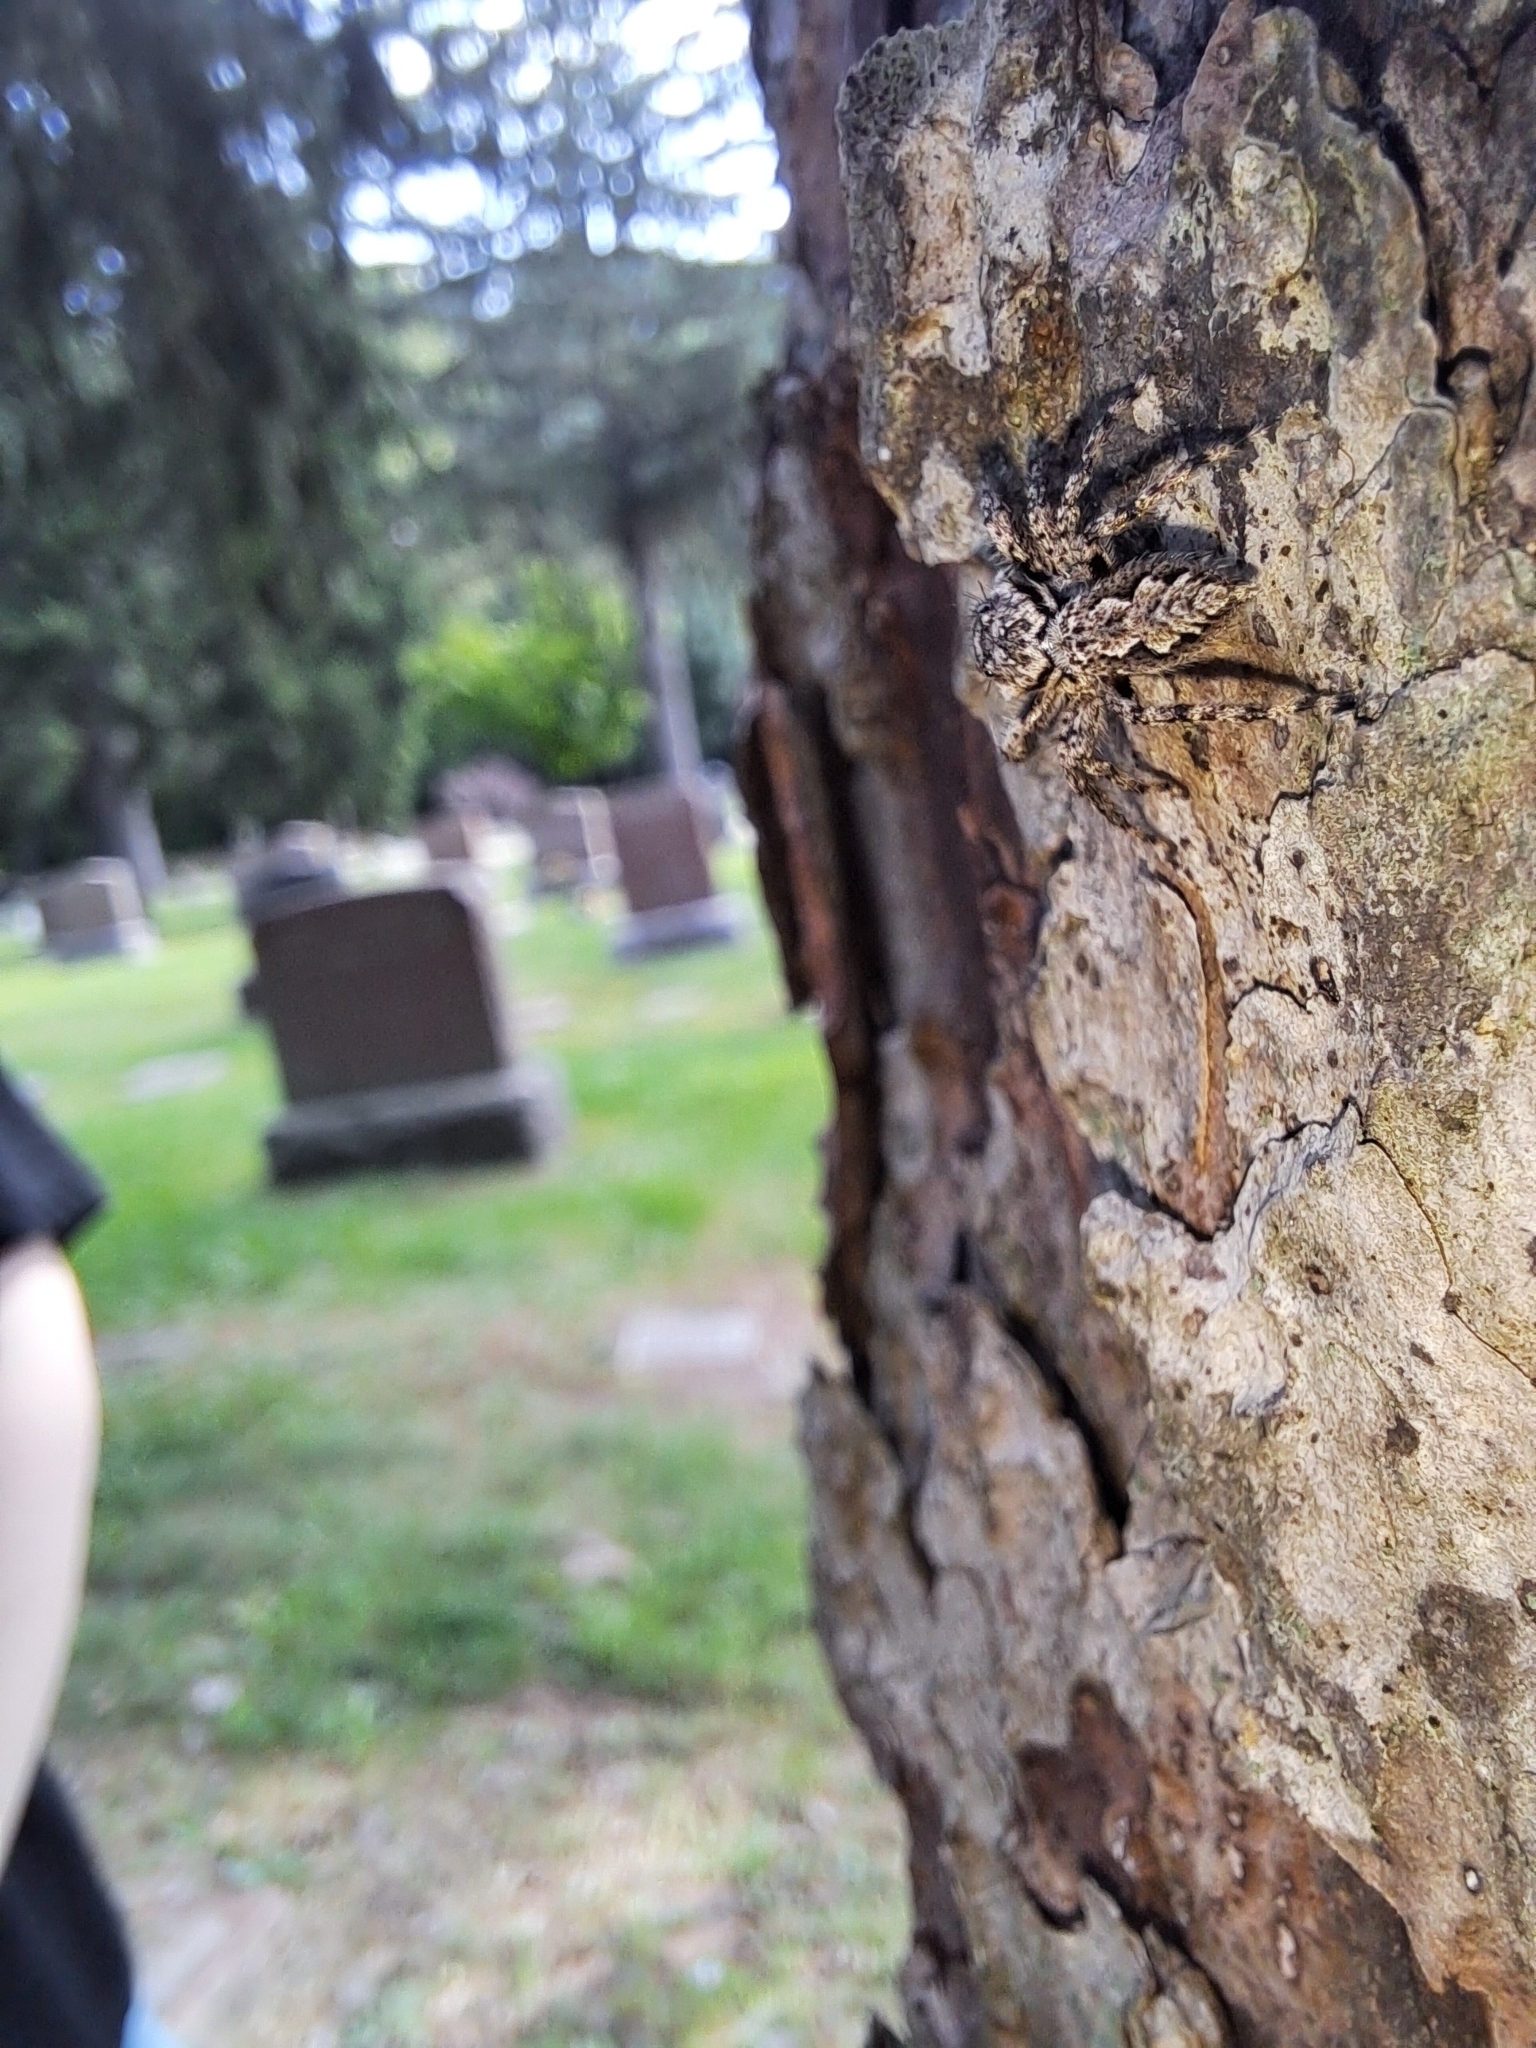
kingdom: Animalia
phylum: Arthropoda
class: Arachnida
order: Araneae
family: Salticidae
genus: Platycryptus
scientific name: Platycryptus undatus
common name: Tan jumping spider
